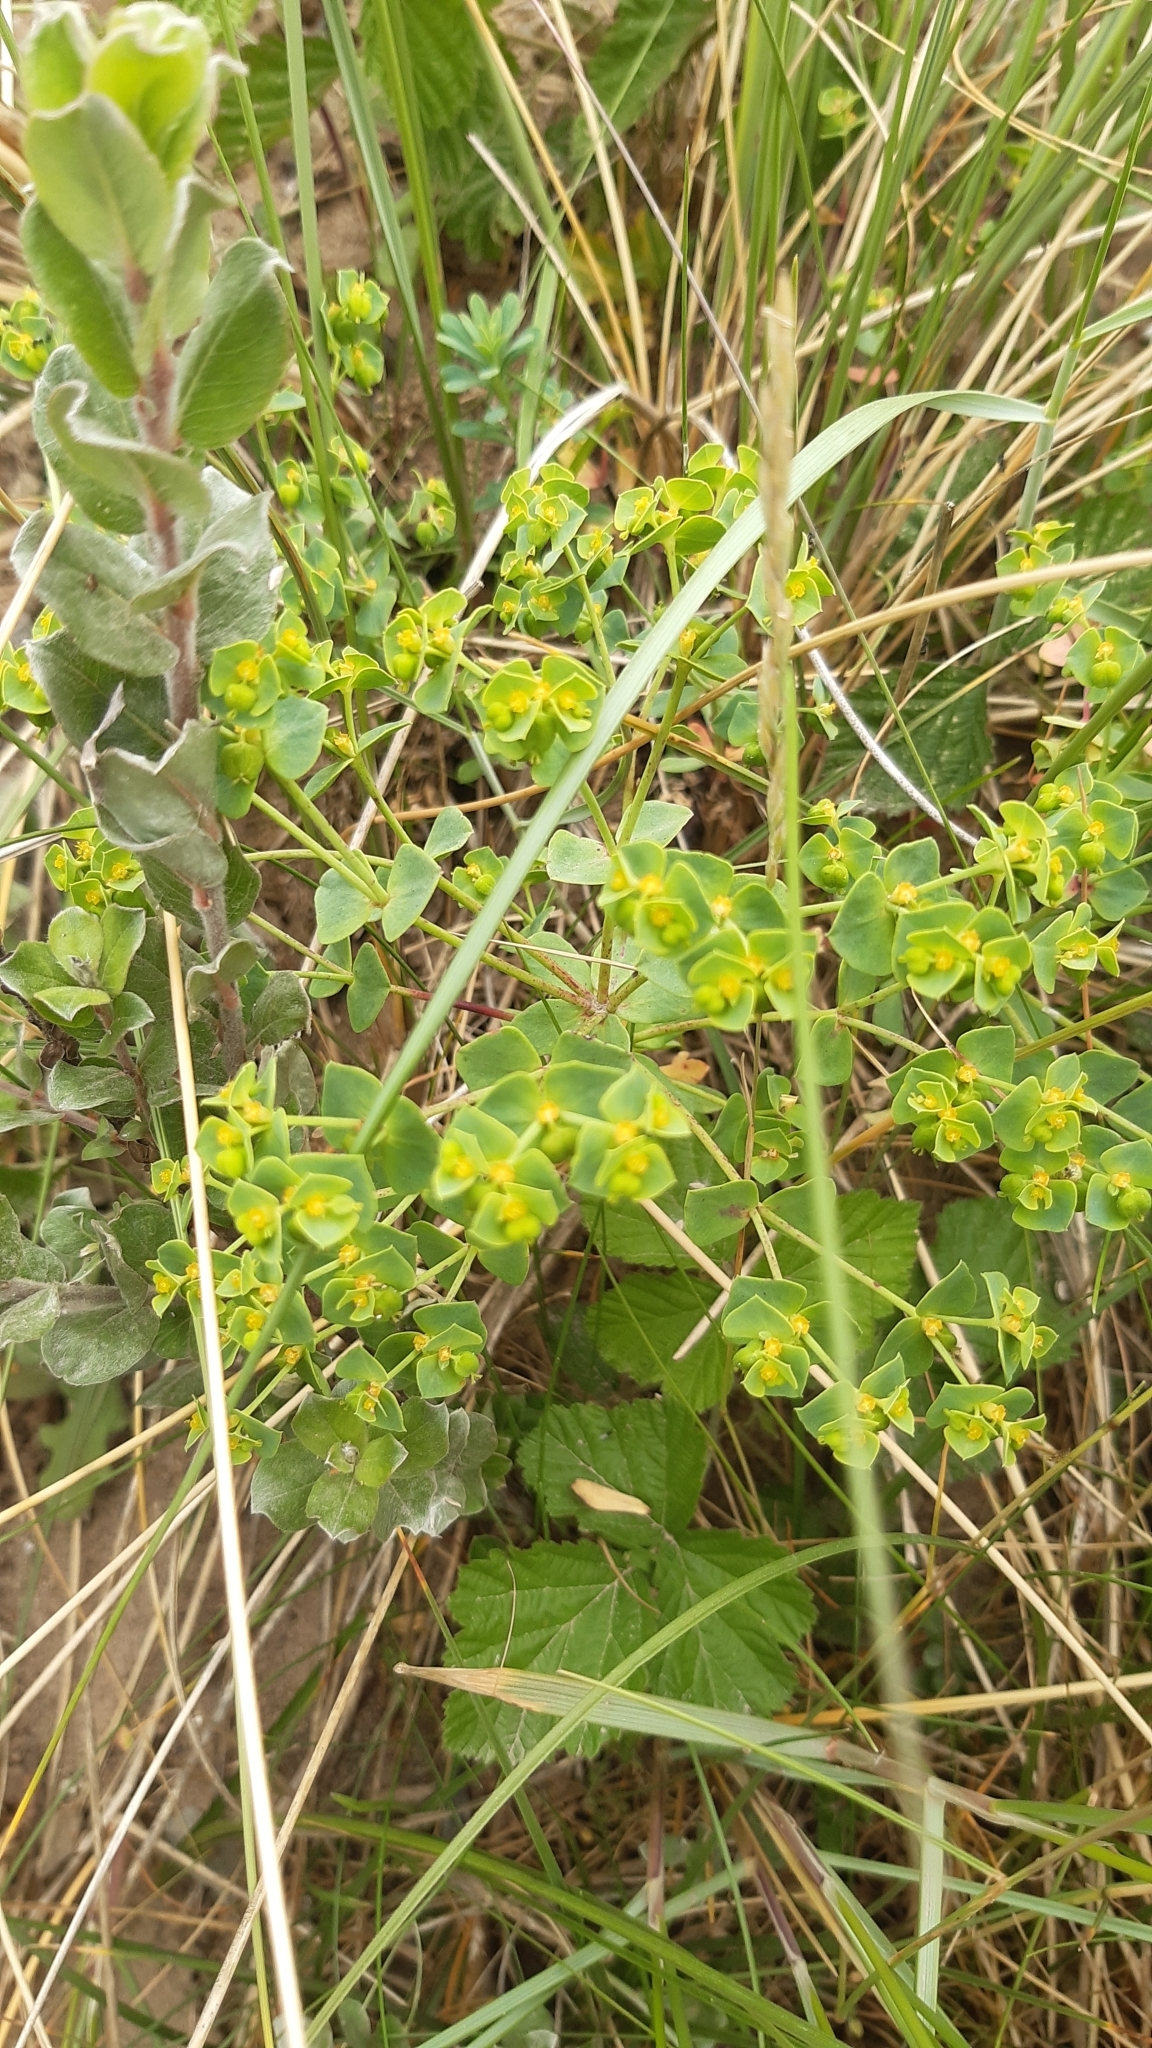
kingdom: Plantae
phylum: Tracheophyta
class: Magnoliopsida
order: Malpighiales
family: Euphorbiaceae
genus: Euphorbia
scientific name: Euphorbia paralias
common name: Sea spurge
